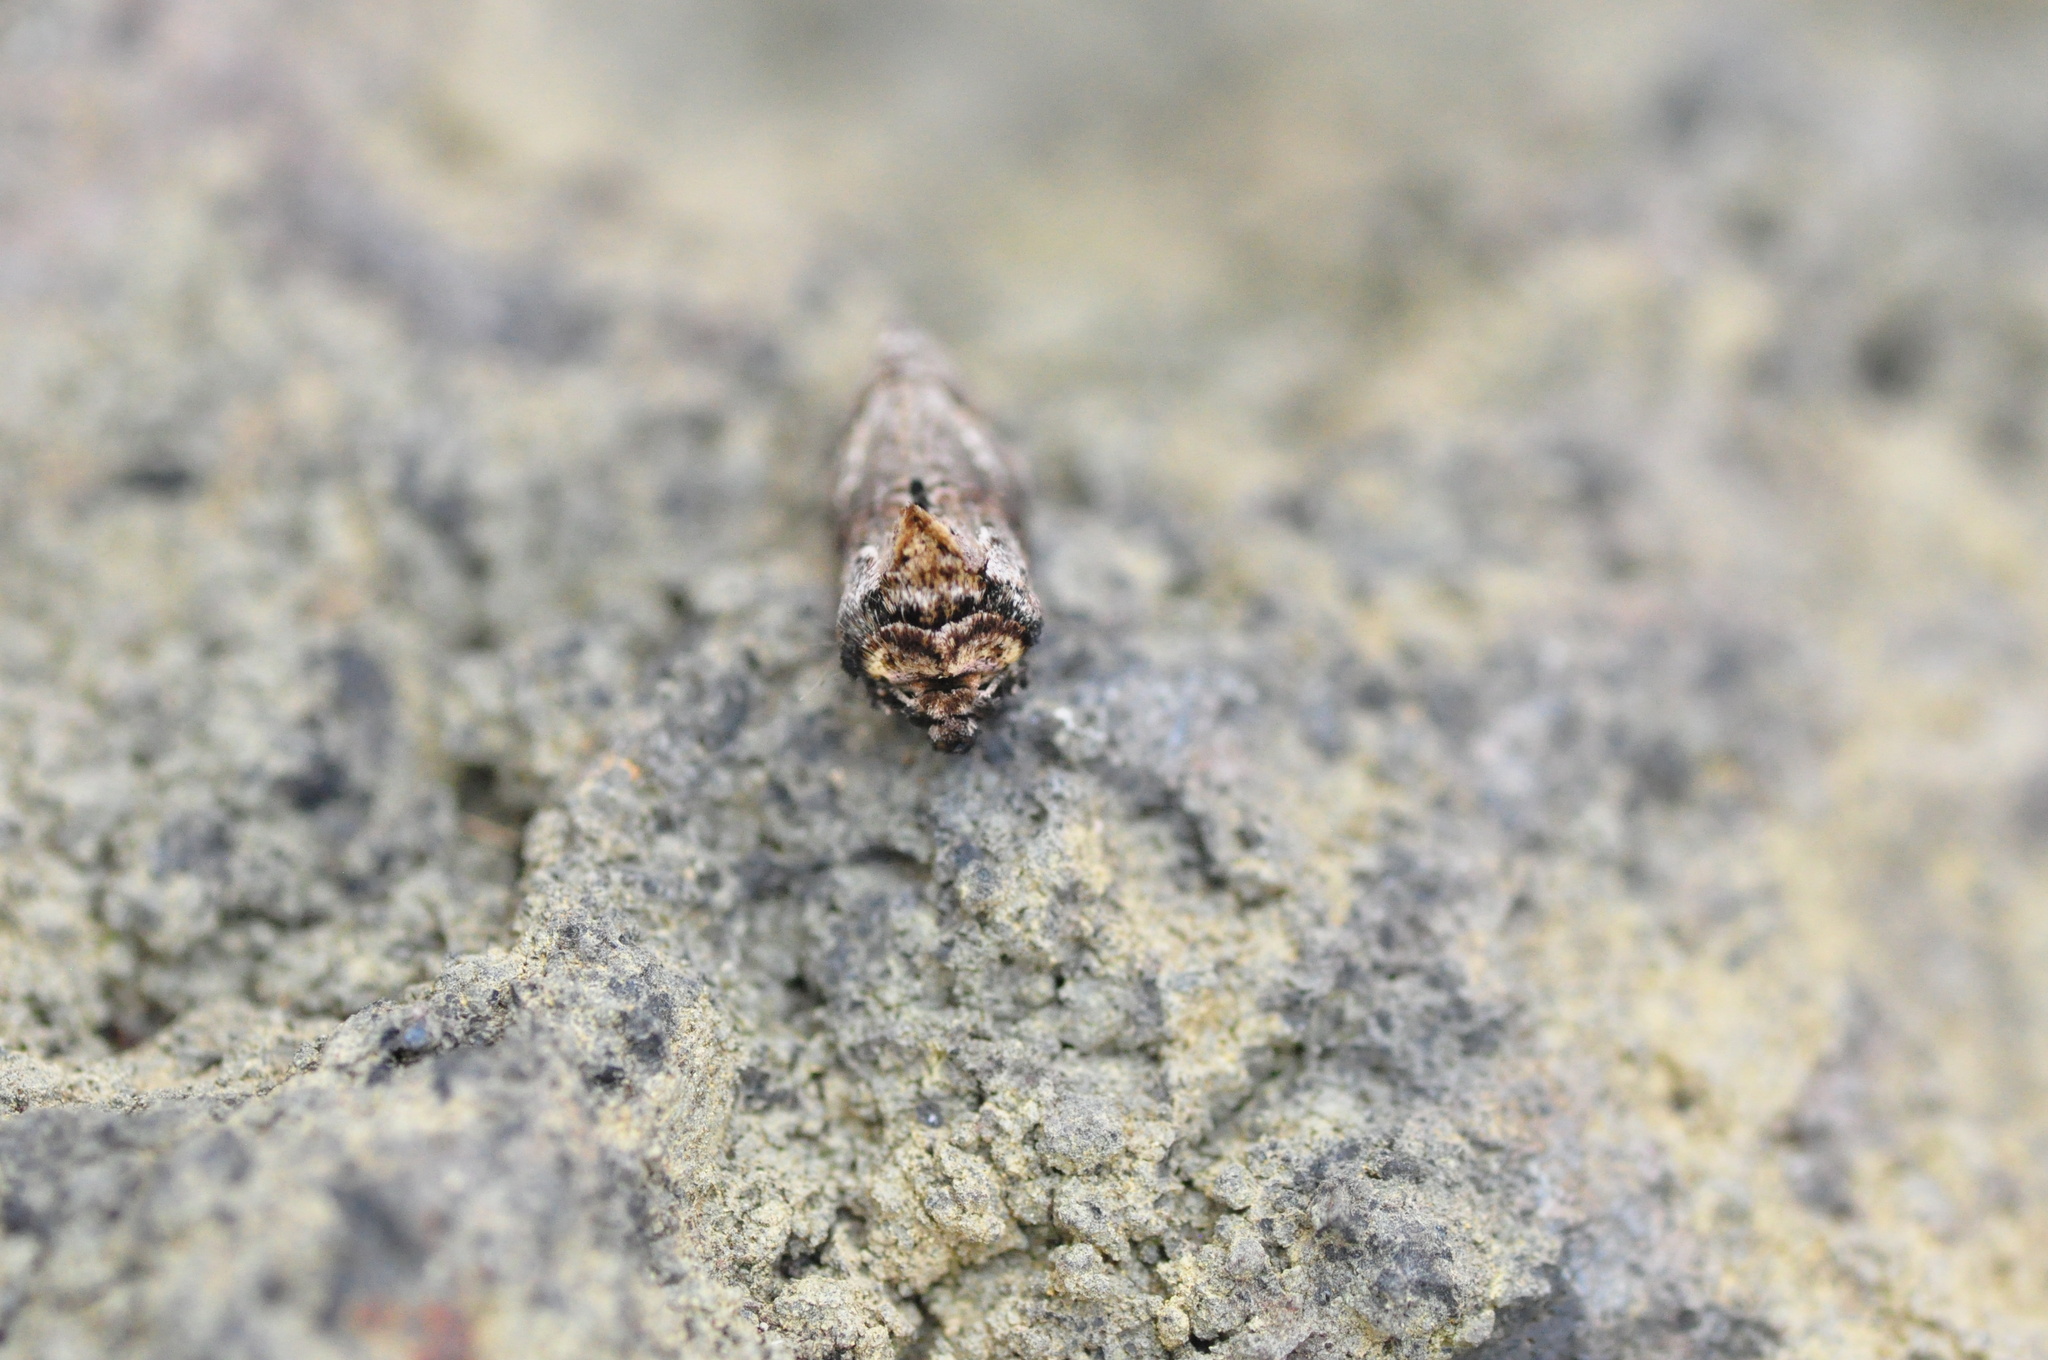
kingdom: Animalia
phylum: Arthropoda
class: Insecta
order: Lepidoptera
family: Noctuidae
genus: Abrostola
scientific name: Abrostola canariensis
